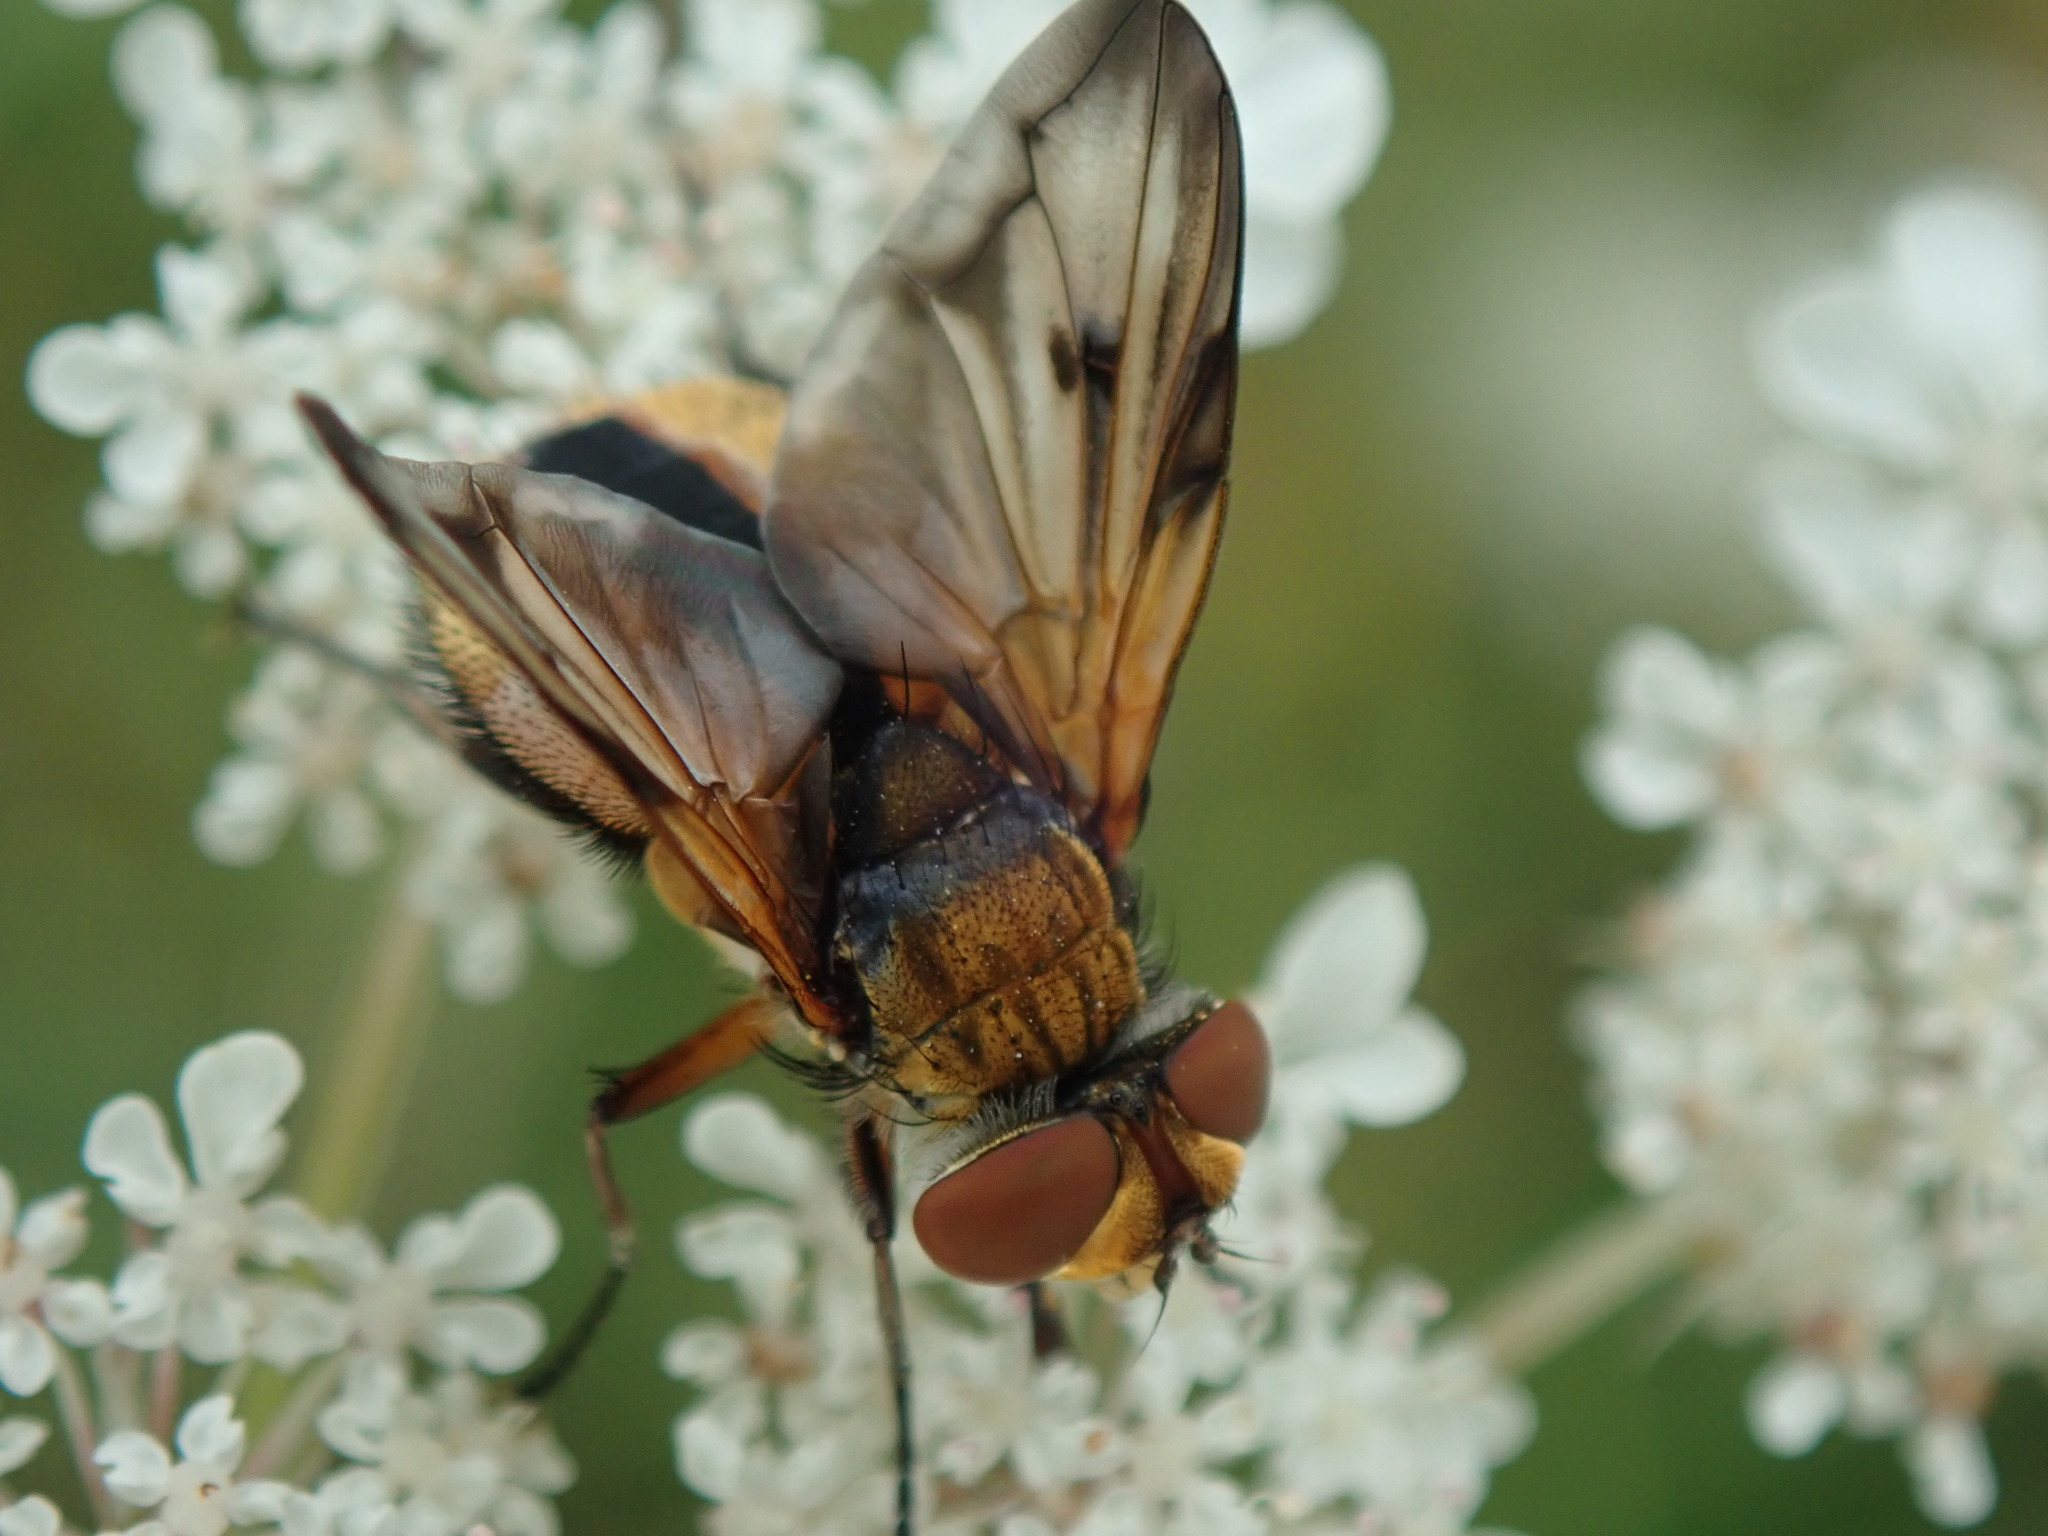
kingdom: Animalia
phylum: Arthropoda
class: Insecta
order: Diptera
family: Tachinidae
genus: Ectophasia
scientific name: Ectophasia crassipennis
